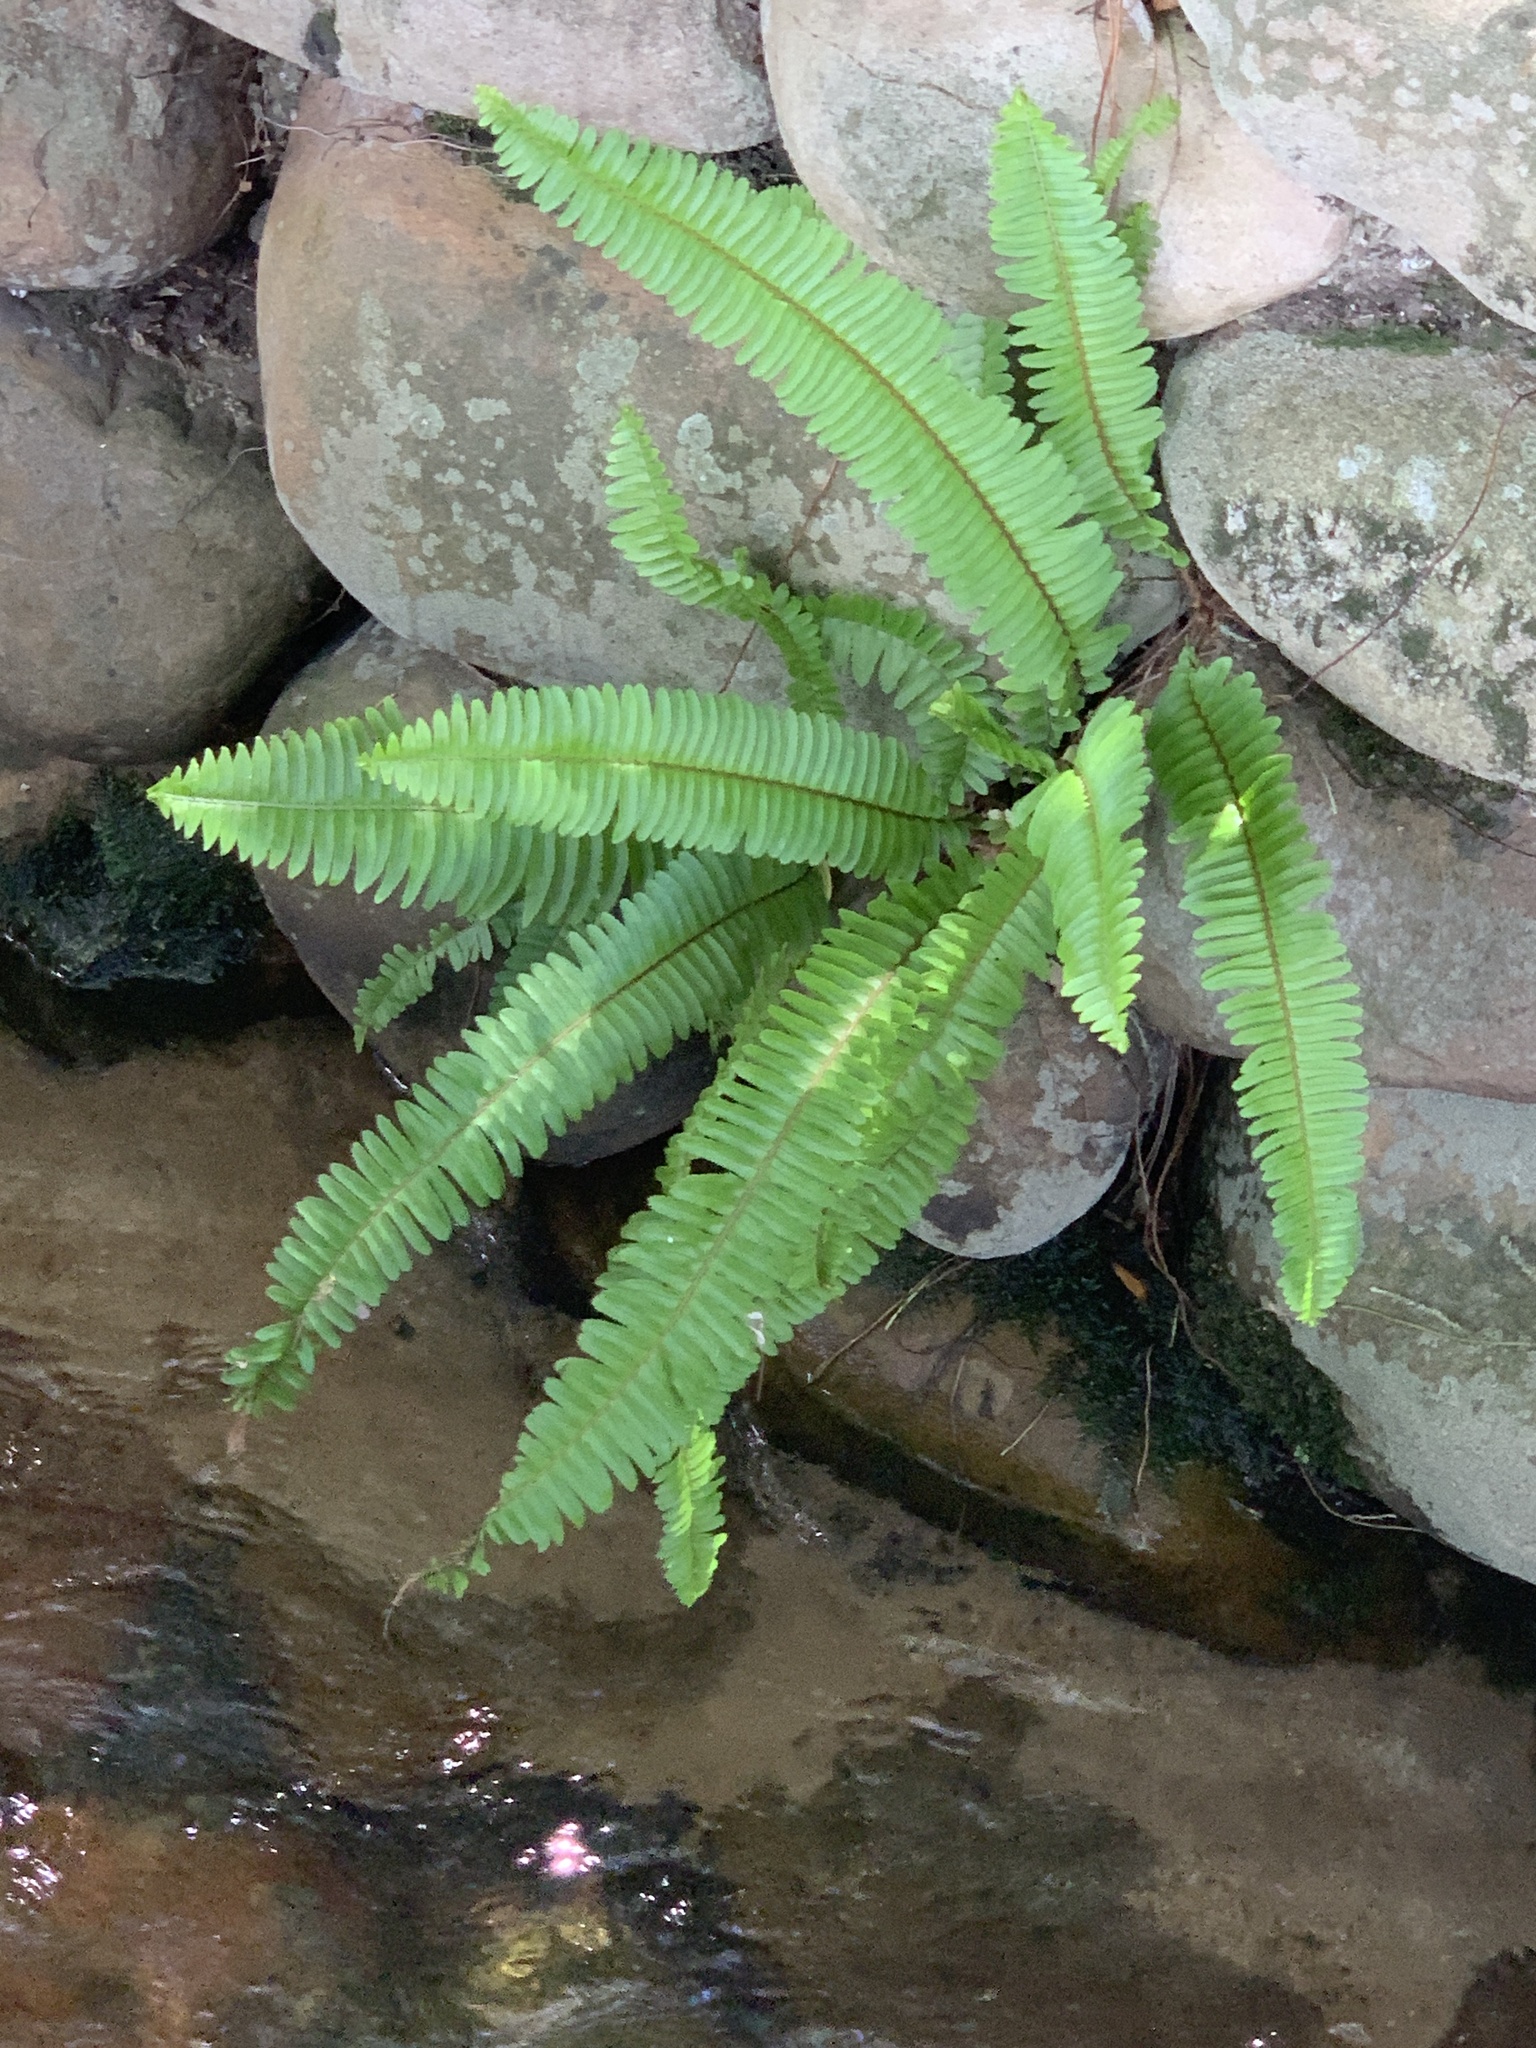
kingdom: Plantae
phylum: Tracheophyta
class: Polypodiopsida
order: Polypodiales
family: Nephrolepidaceae
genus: Nephrolepis
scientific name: Nephrolepis cordifolia
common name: Narrow swordfern
